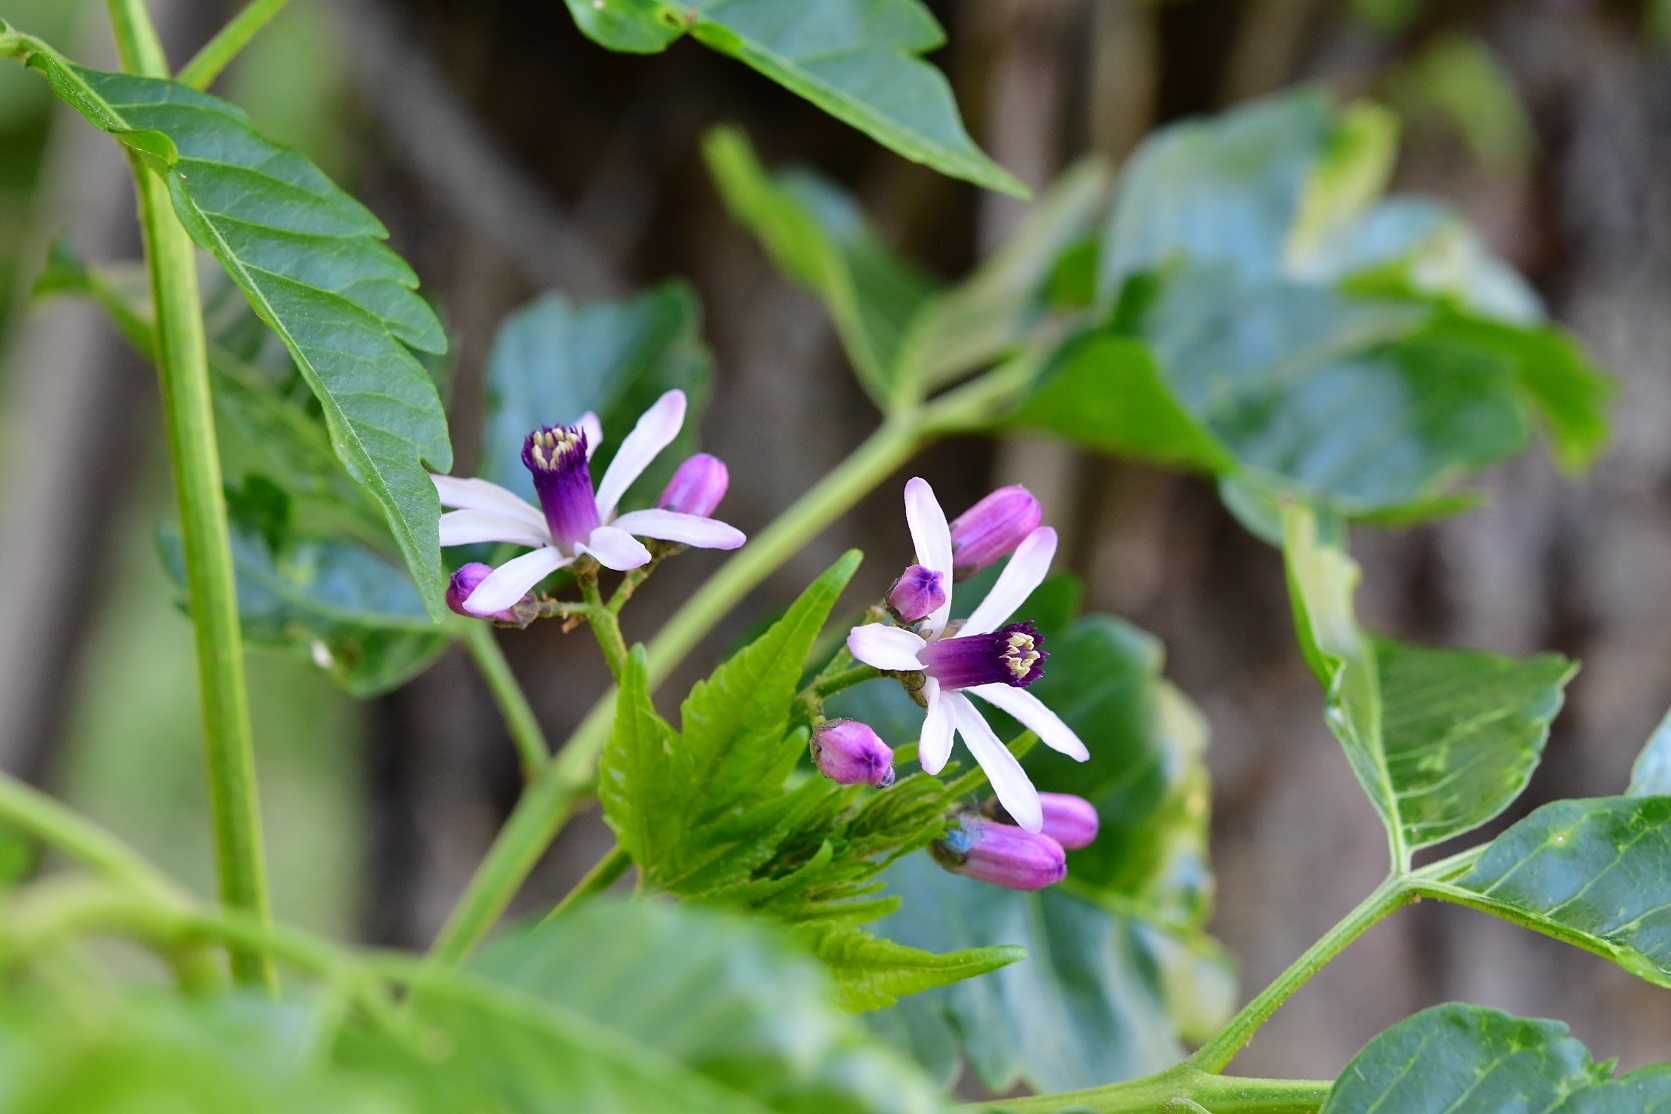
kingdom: Plantae
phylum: Tracheophyta
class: Magnoliopsida
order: Sapindales
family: Meliaceae
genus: Melia
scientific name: Melia azedarach
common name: Chinaberrytree
